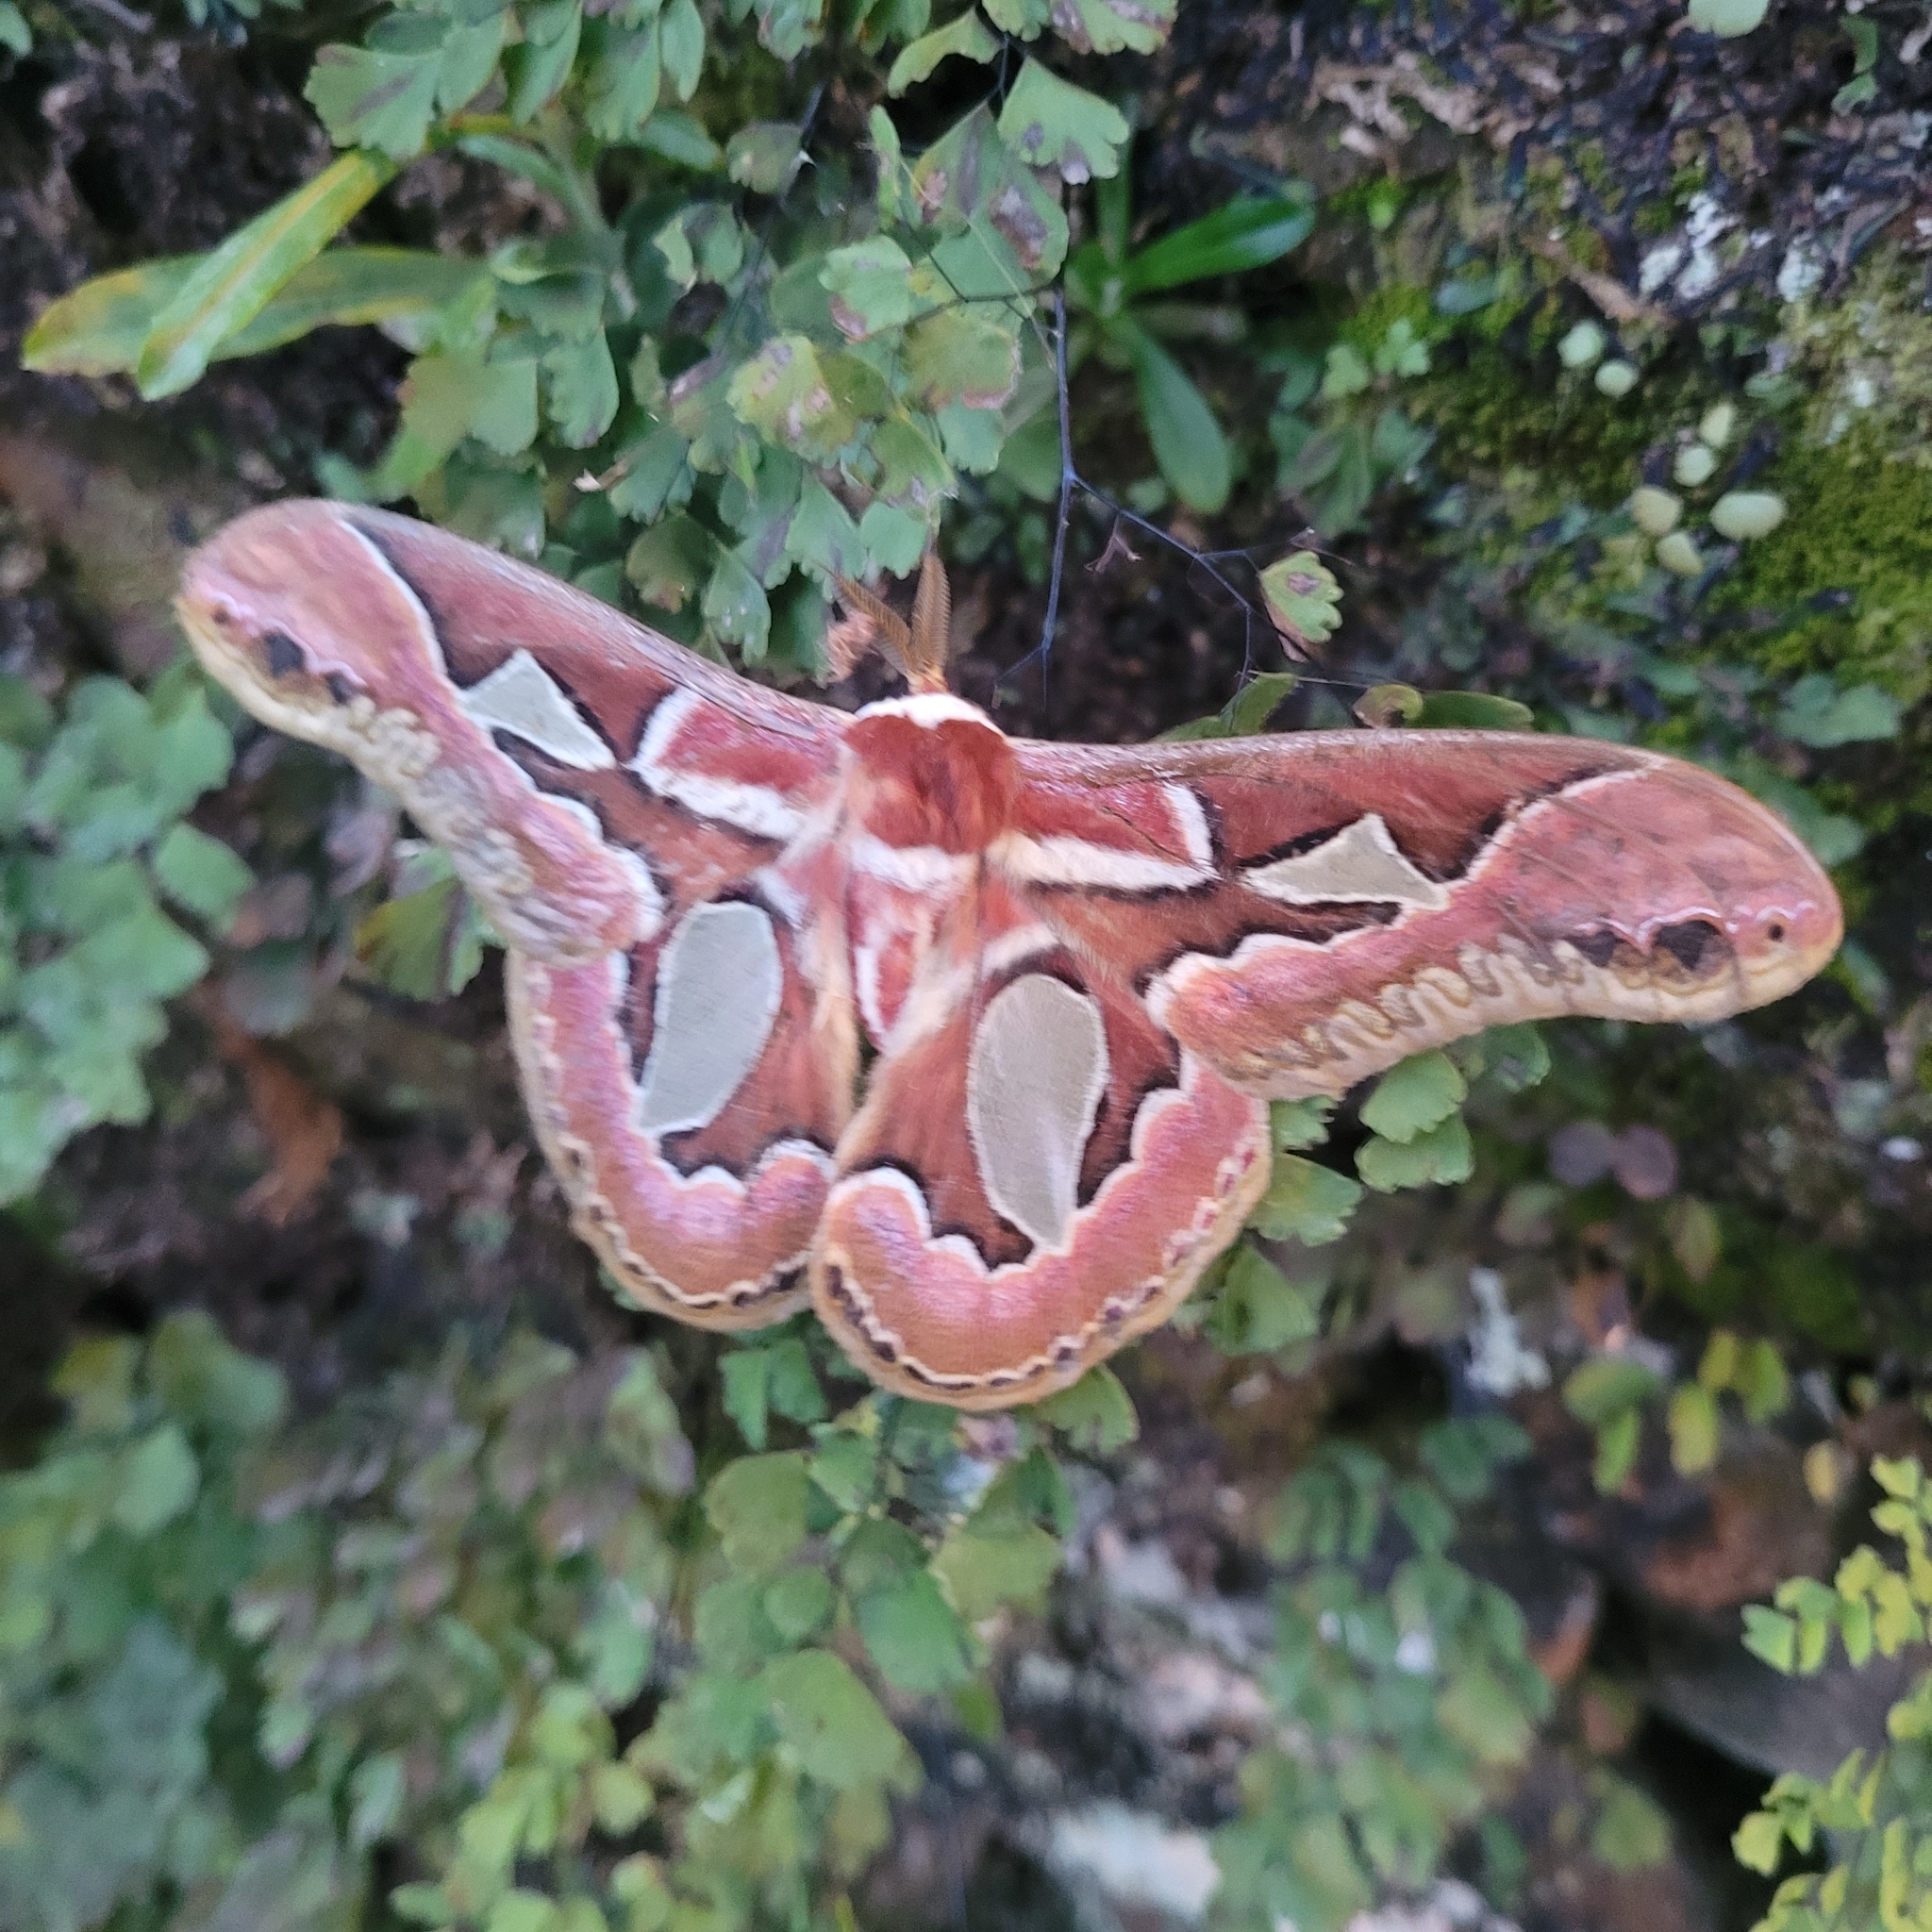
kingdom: Animalia
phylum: Arthropoda
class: Insecta
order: Lepidoptera
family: Saturniidae
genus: Rothschildia
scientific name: Rothschildia jacobaeae
